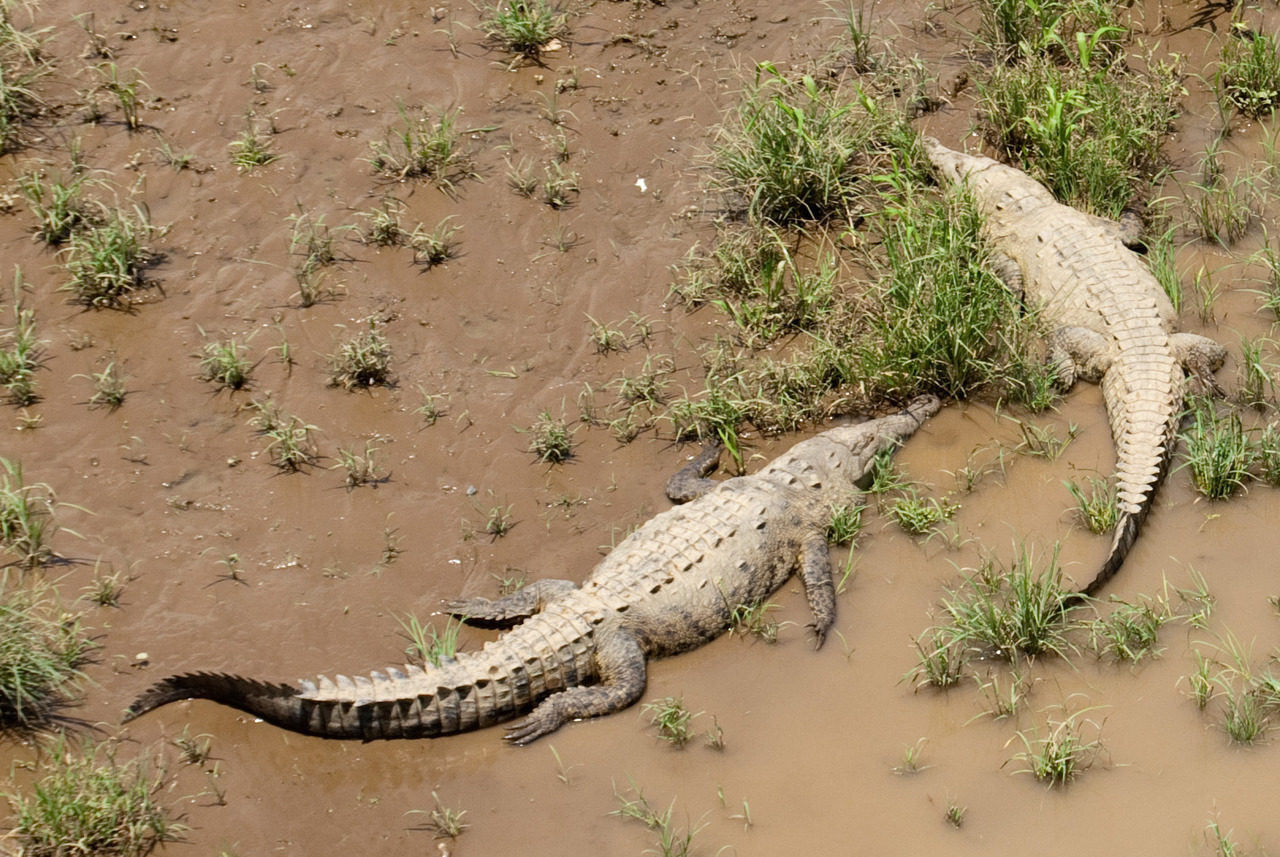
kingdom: Animalia
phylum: Chordata
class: Crocodylia
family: Crocodylidae
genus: Crocodylus
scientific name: Crocodylus acutus
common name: American crocodile
